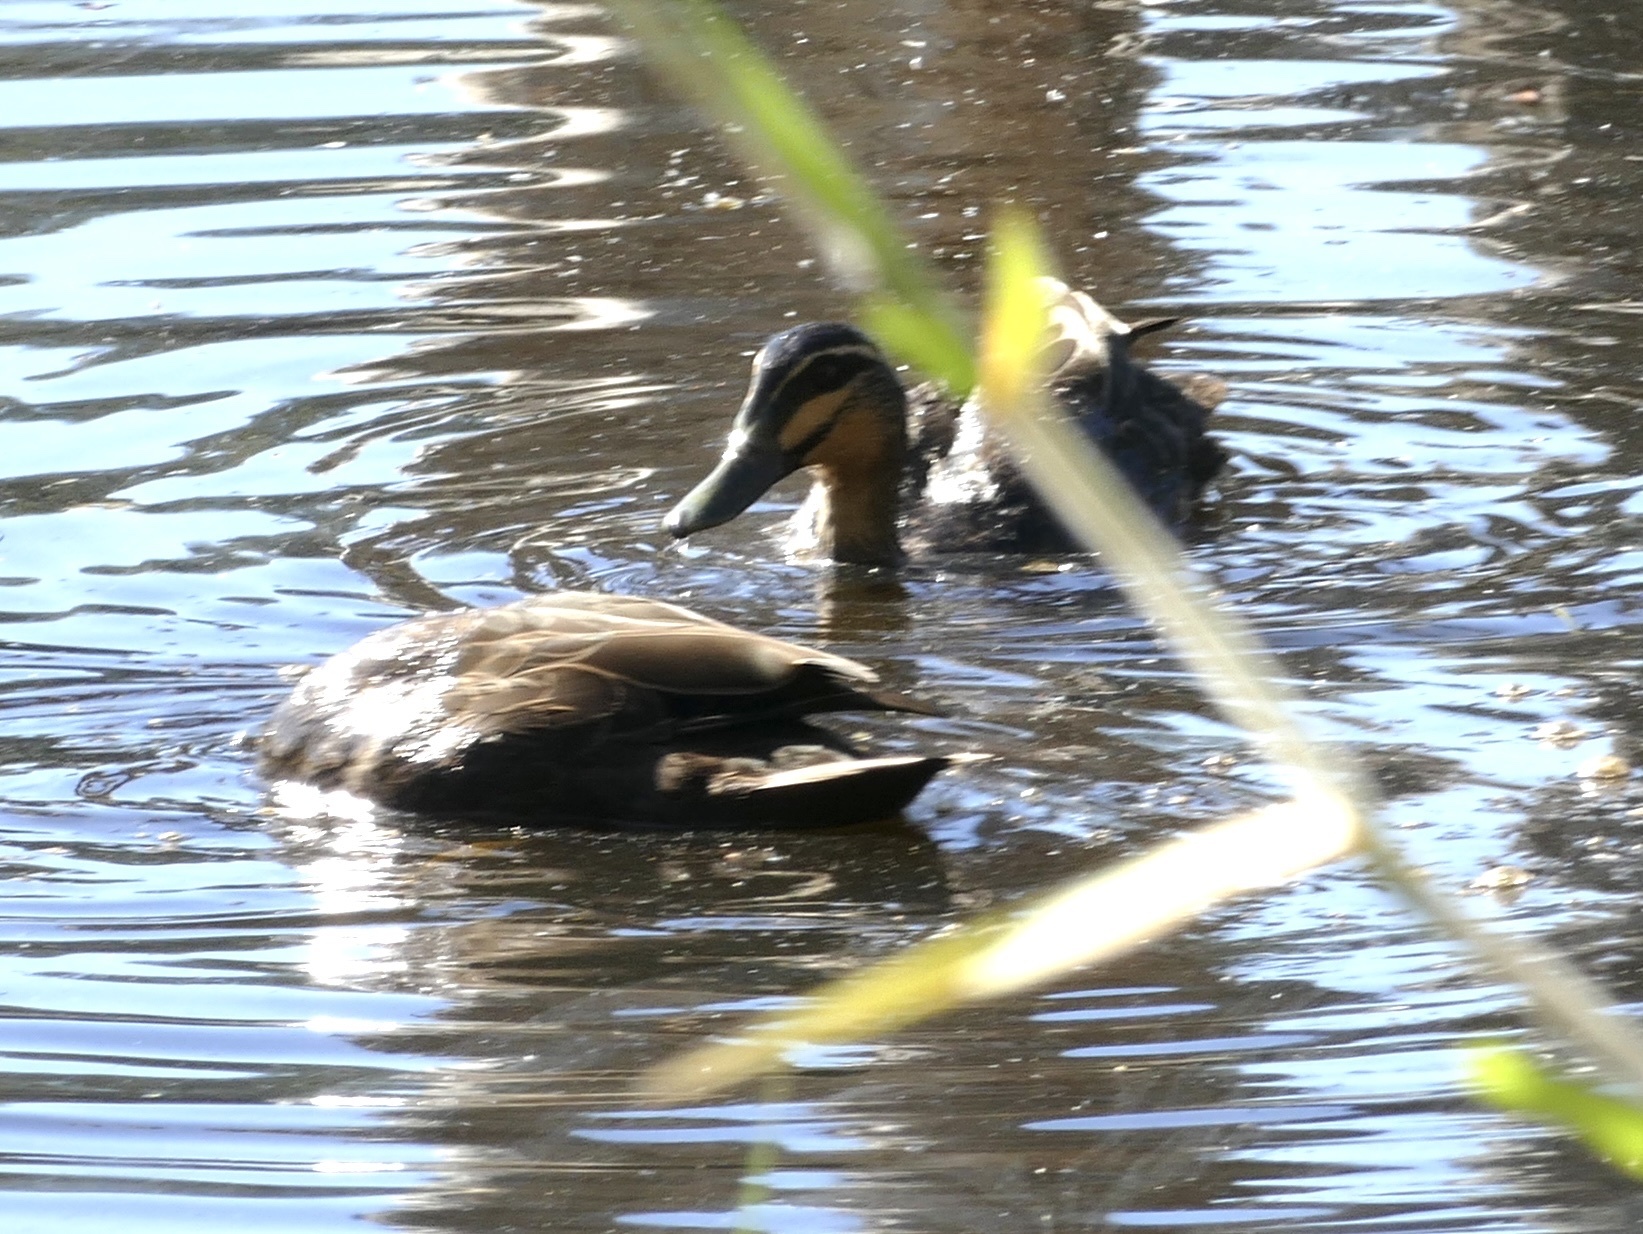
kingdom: Animalia
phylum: Chordata
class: Aves
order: Anseriformes
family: Anatidae
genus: Anas
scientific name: Anas superciliosa
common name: Pacific black duck
